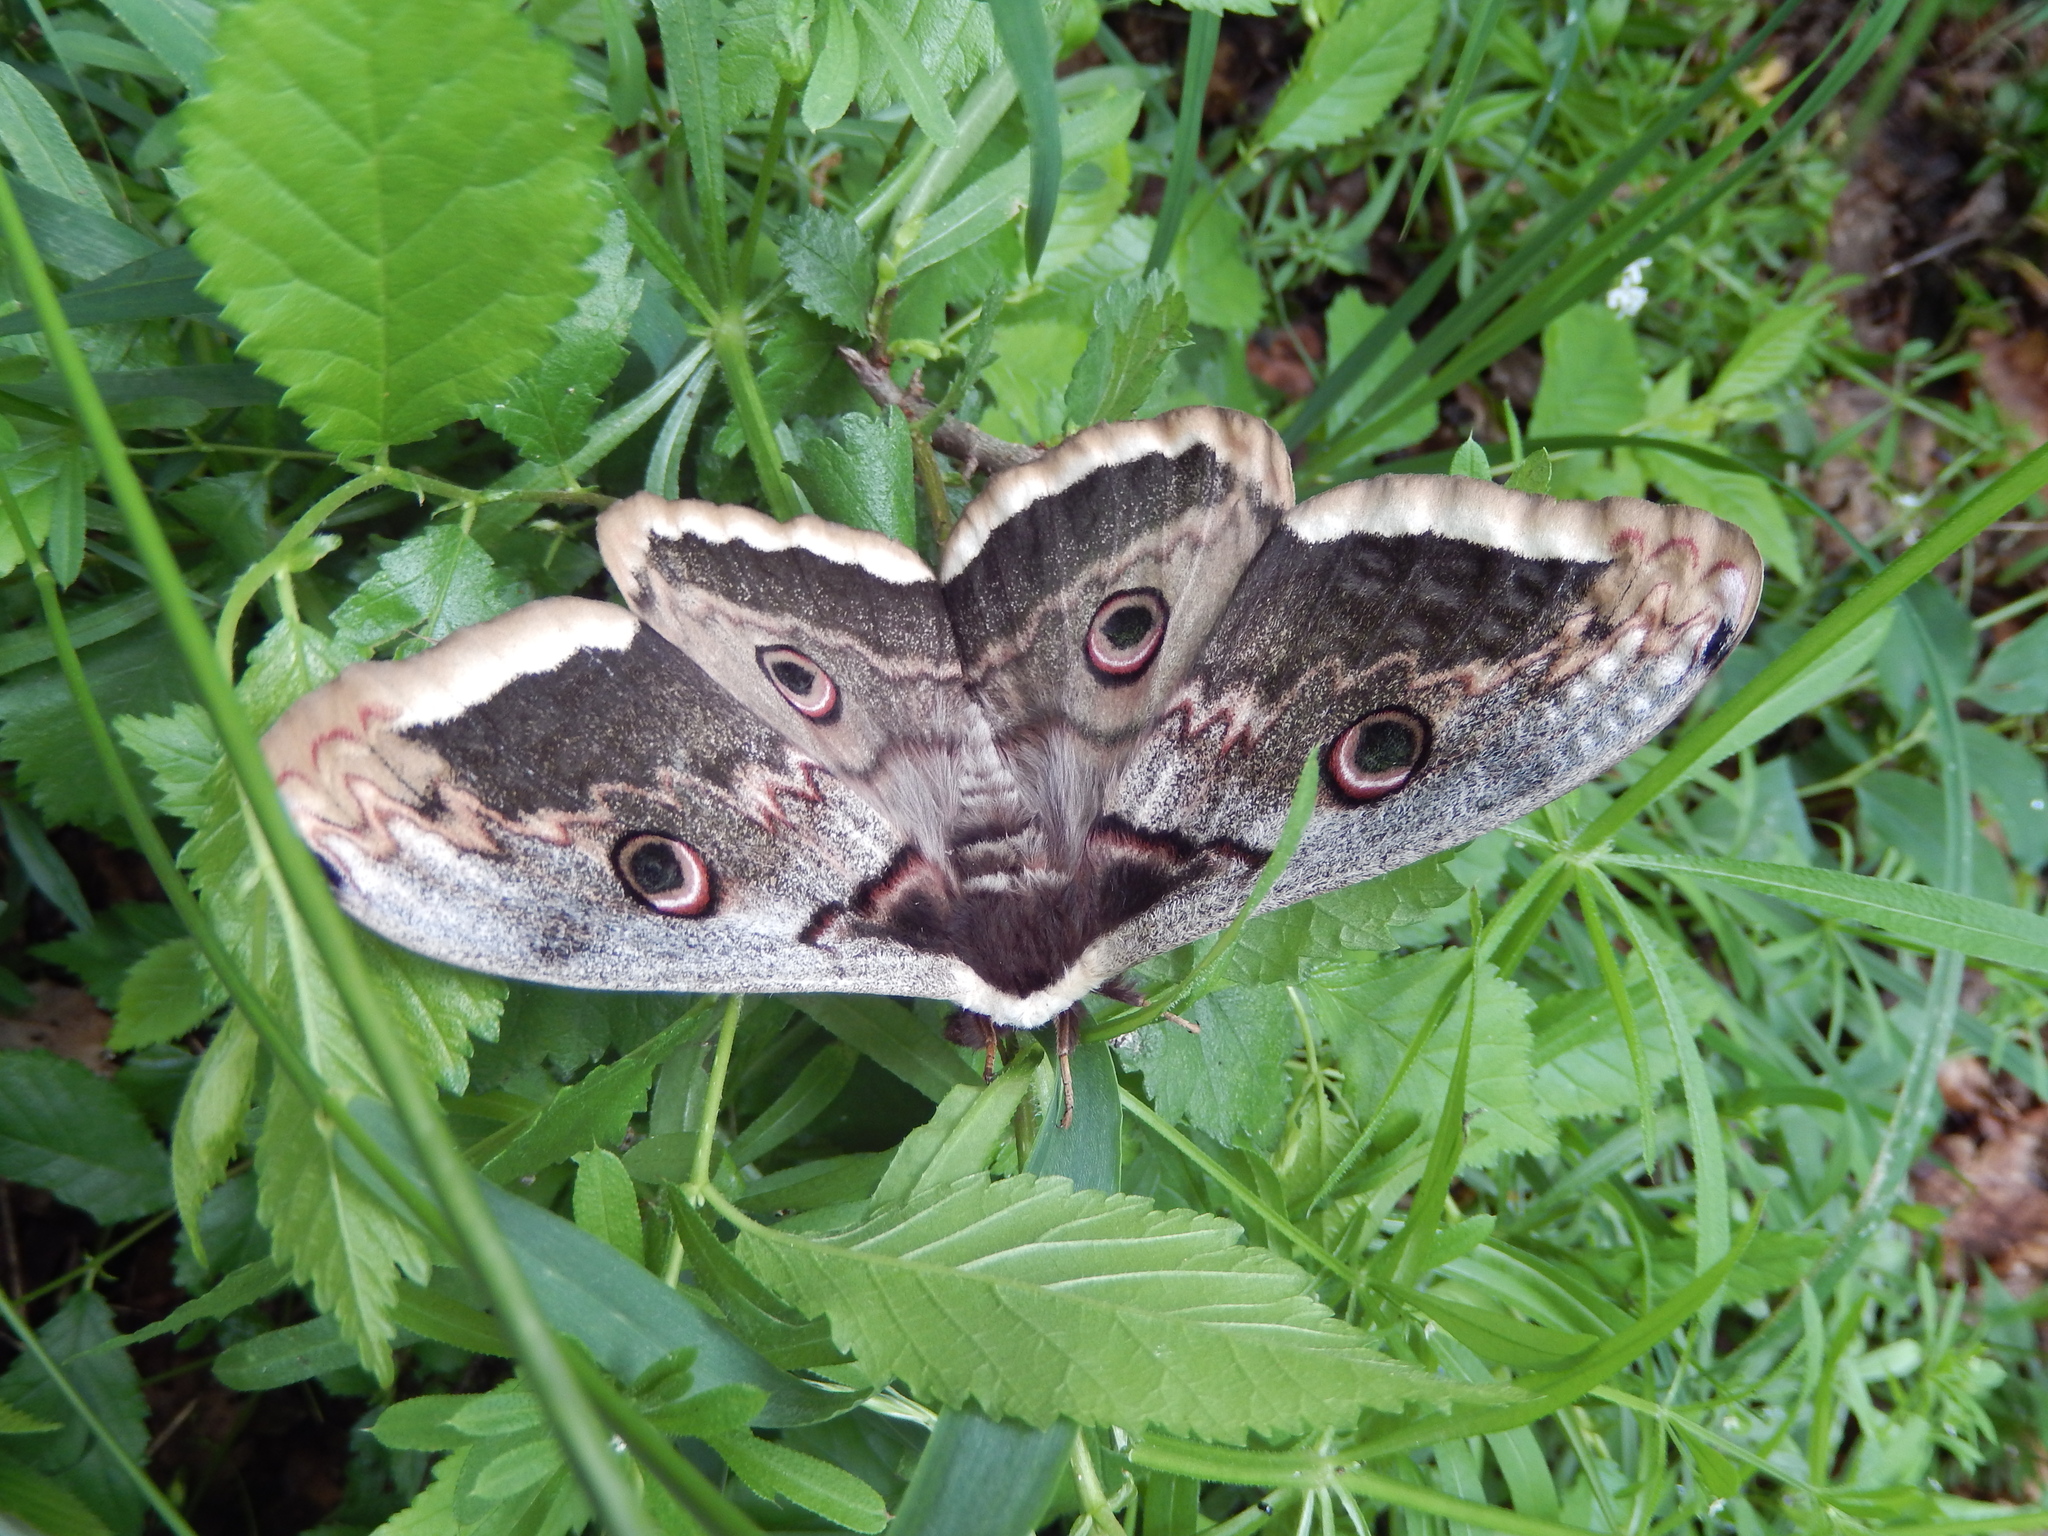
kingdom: Animalia
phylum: Arthropoda
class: Insecta
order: Lepidoptera
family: Saturniidae
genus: Saturnia
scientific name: Saturnia pyri
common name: Great peacock moth
